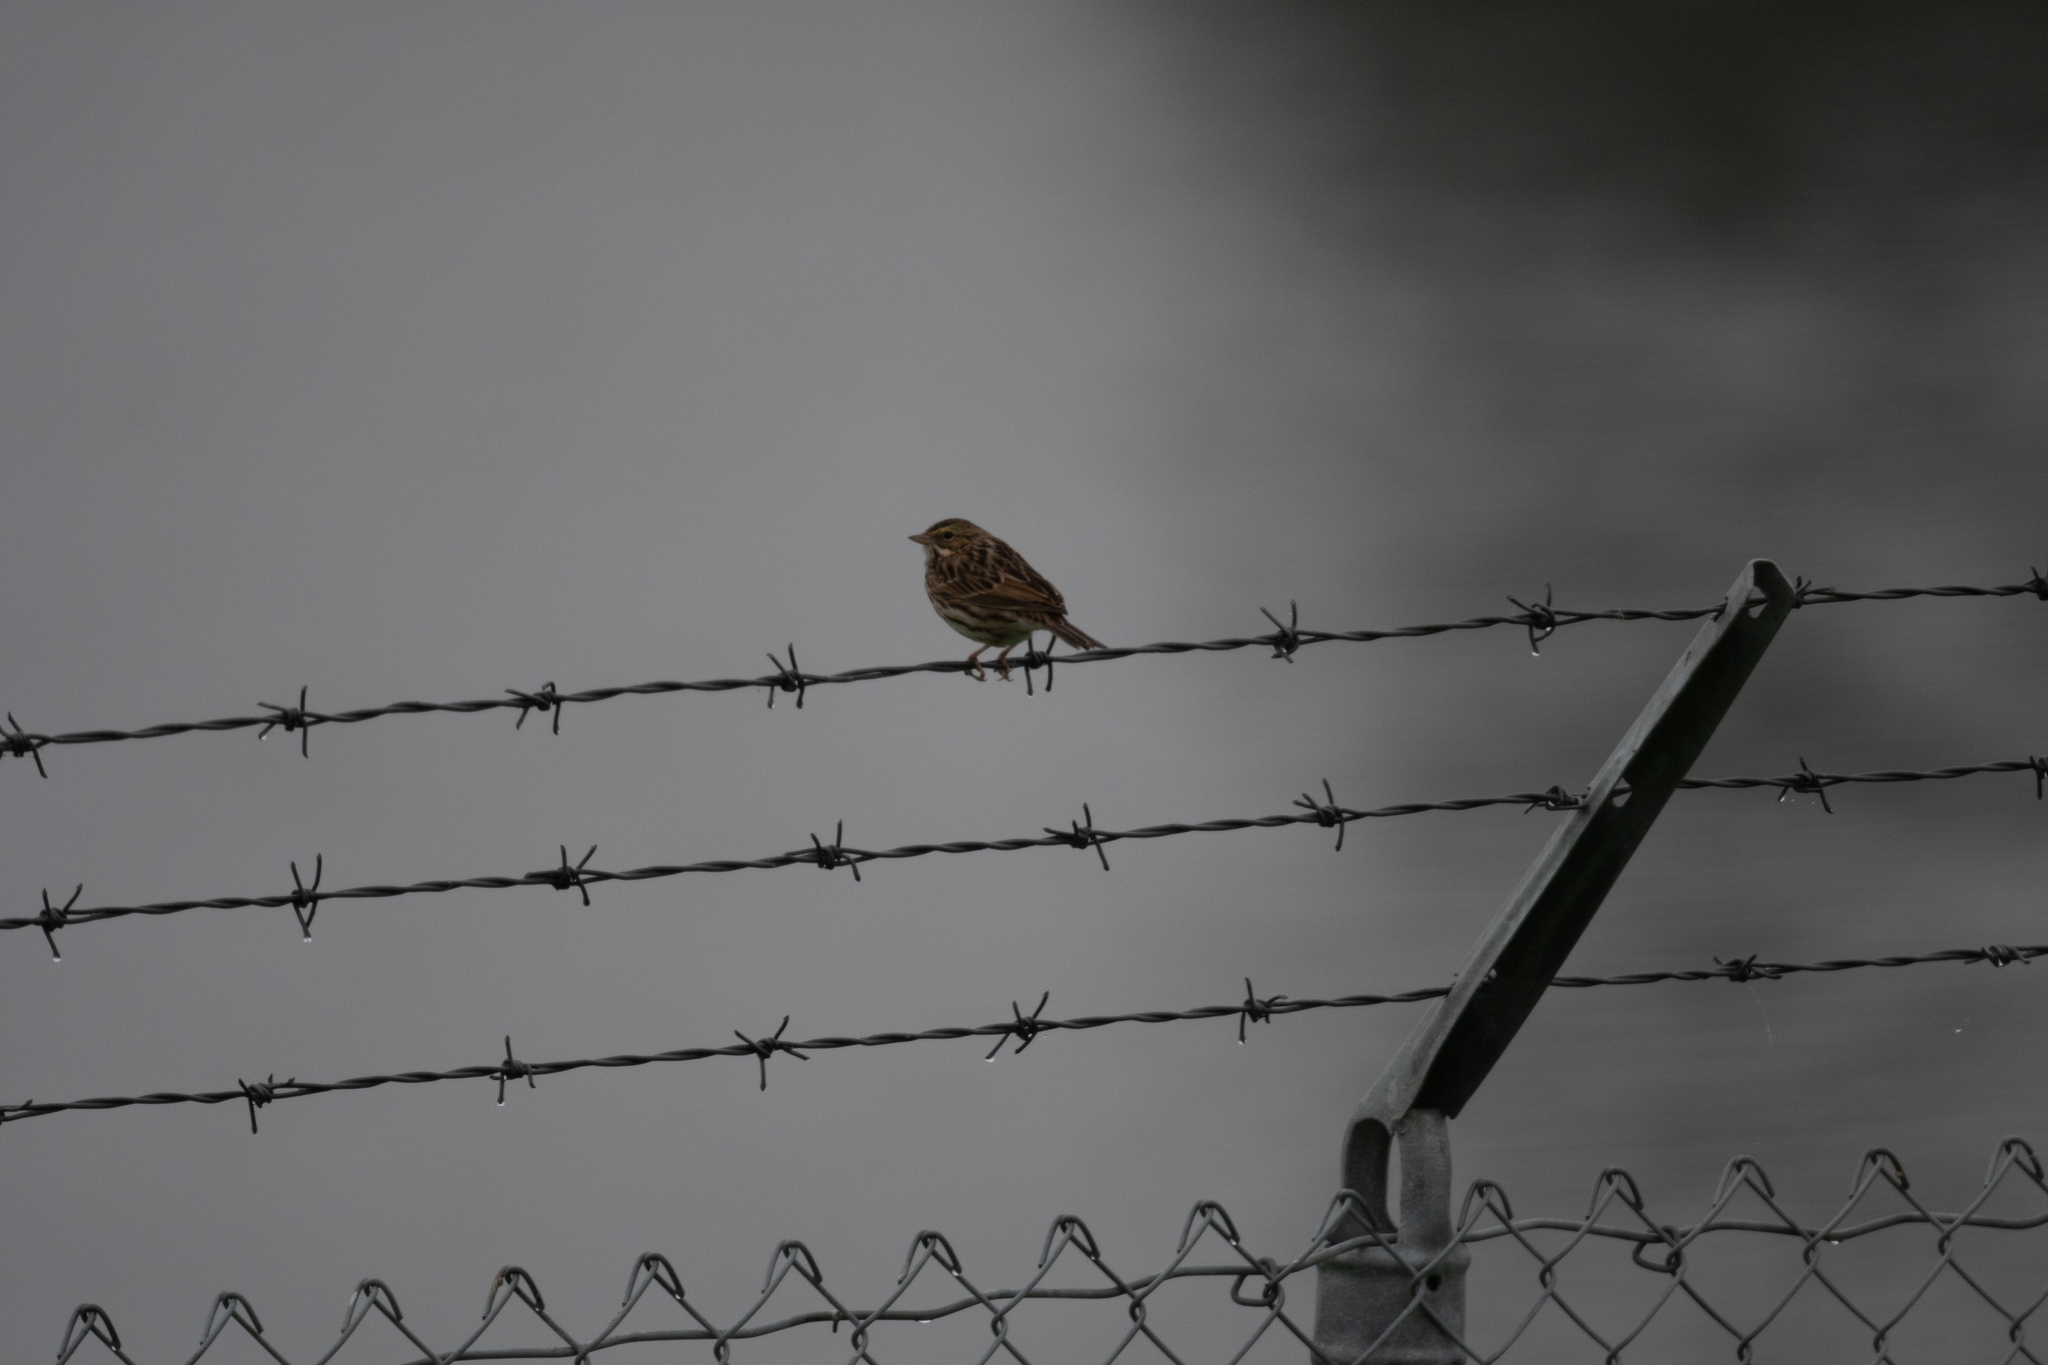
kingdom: Animalia
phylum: Chordata
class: Aves
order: Passeriformes
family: Passerellidae
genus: Passerculus
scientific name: Passerculus sandwichensis
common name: Savannah sparrow
